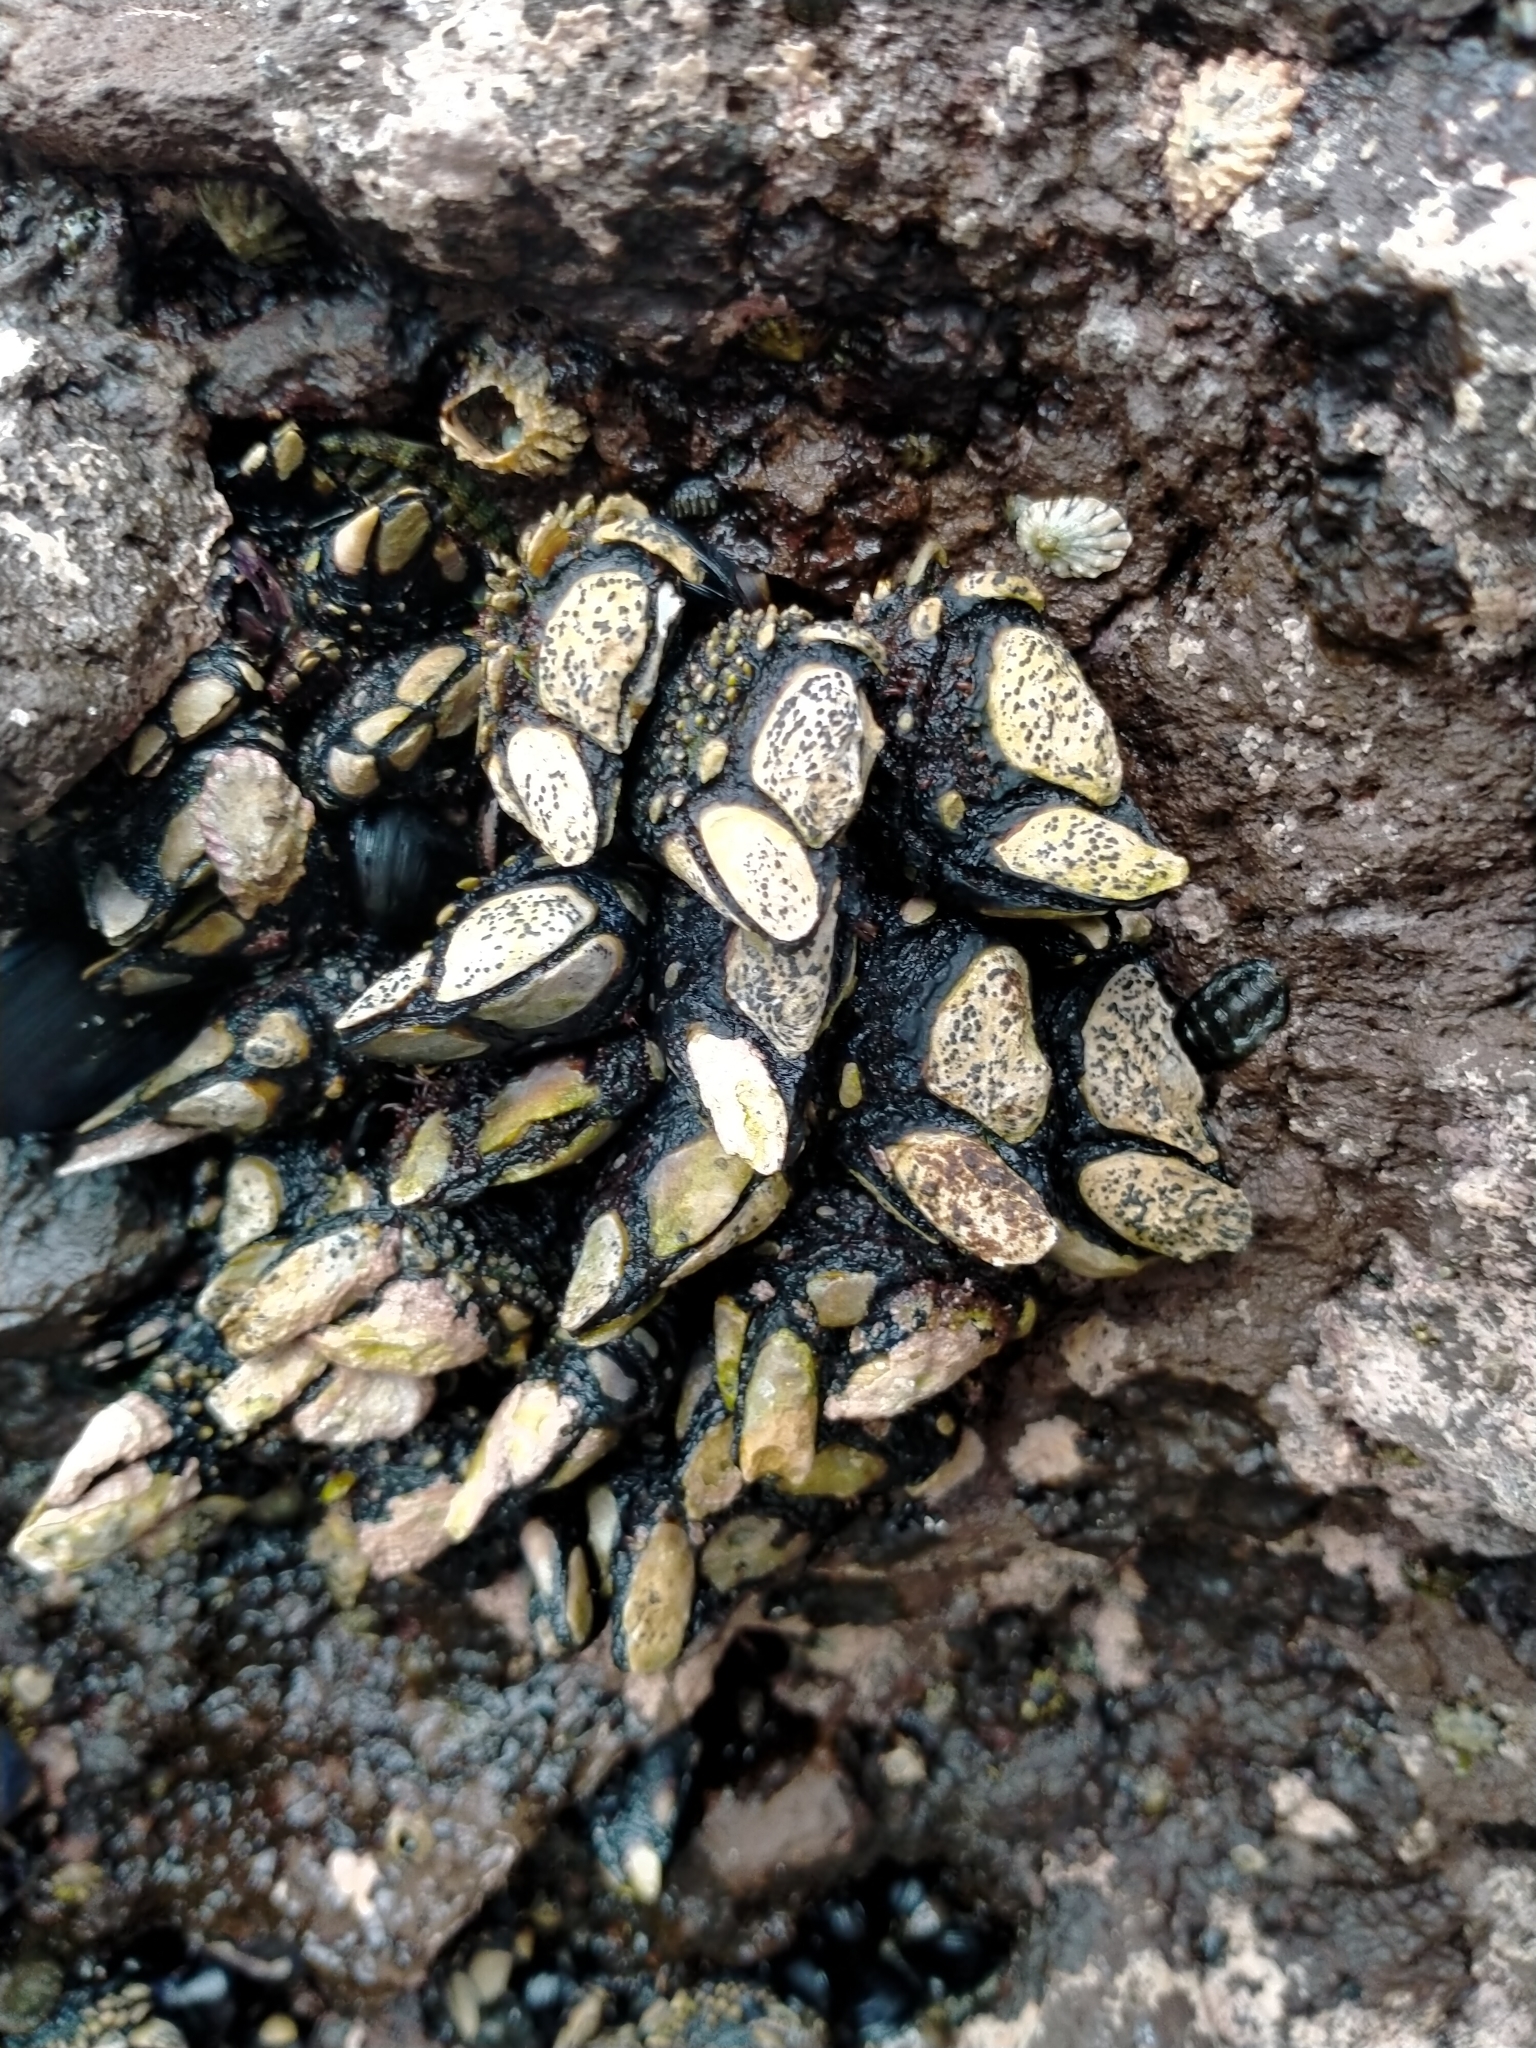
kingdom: Animalia
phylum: Arthropoda
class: Maxillopoda
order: Pedunculata
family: Calanticidae
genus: Calantica
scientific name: Calantica spinosa
